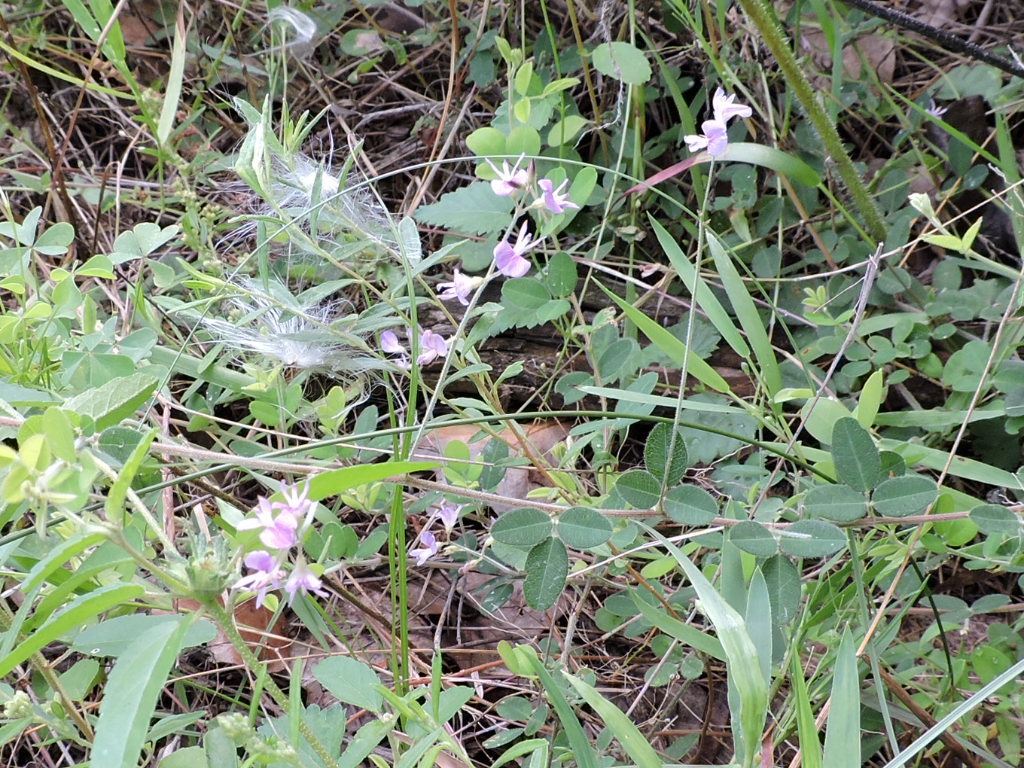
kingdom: Plantae
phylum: Tracheophyta
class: Magnoliopsida
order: Fabales
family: Fabaceae
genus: Lespedeza
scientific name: Lespedeza texana
